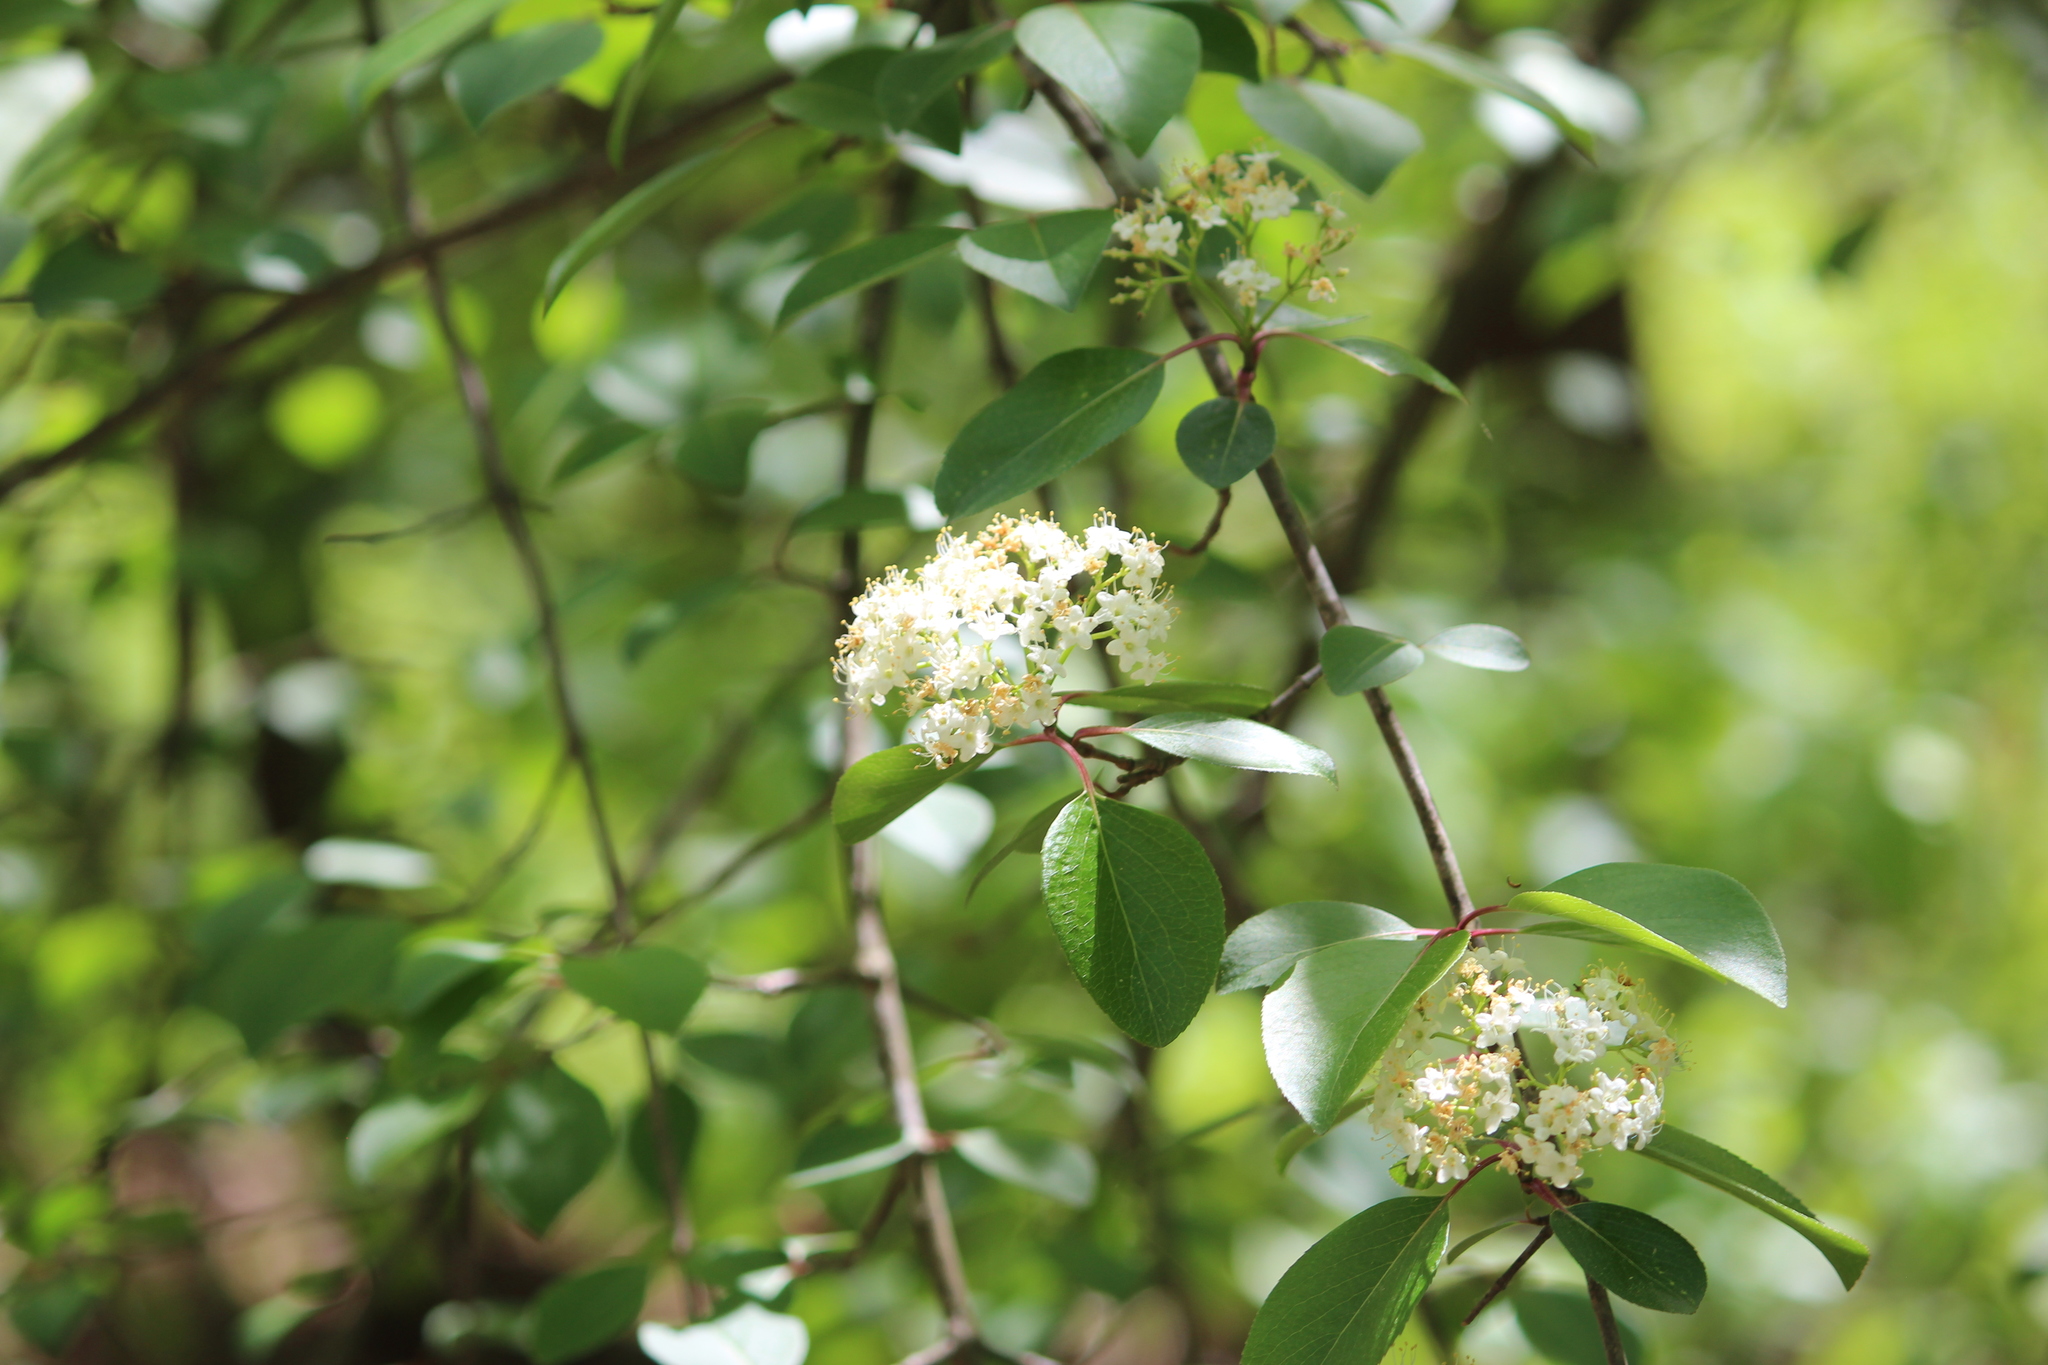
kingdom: Plantae
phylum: Tracheophyta
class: Magnoliopsida
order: Dipsacales
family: Viburnaceae
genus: Viburnum
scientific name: Viburnum prunifolium
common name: Black haw
